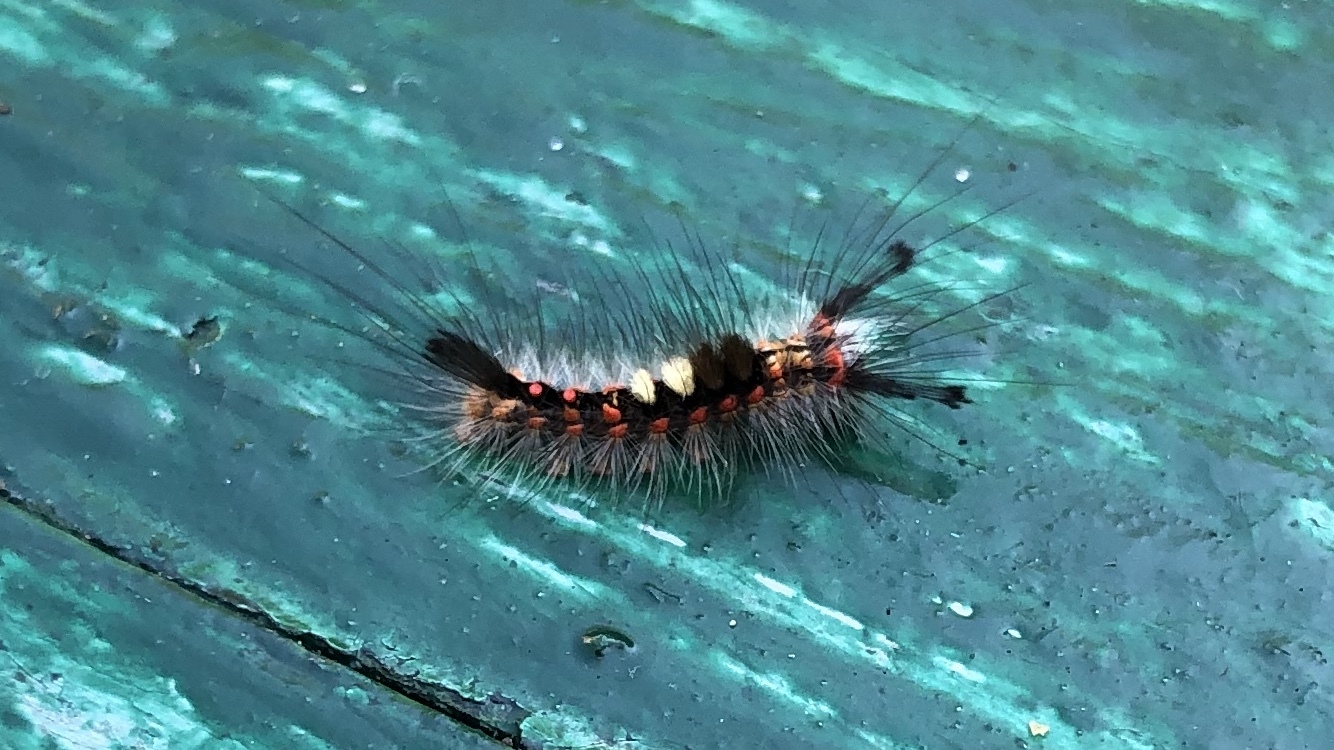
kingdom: Animalia
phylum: Arthropoda
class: Insecta
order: Lepidoptera
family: Erebidae
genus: Orgyia
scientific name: Orgyia antiqua
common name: Vapourer
